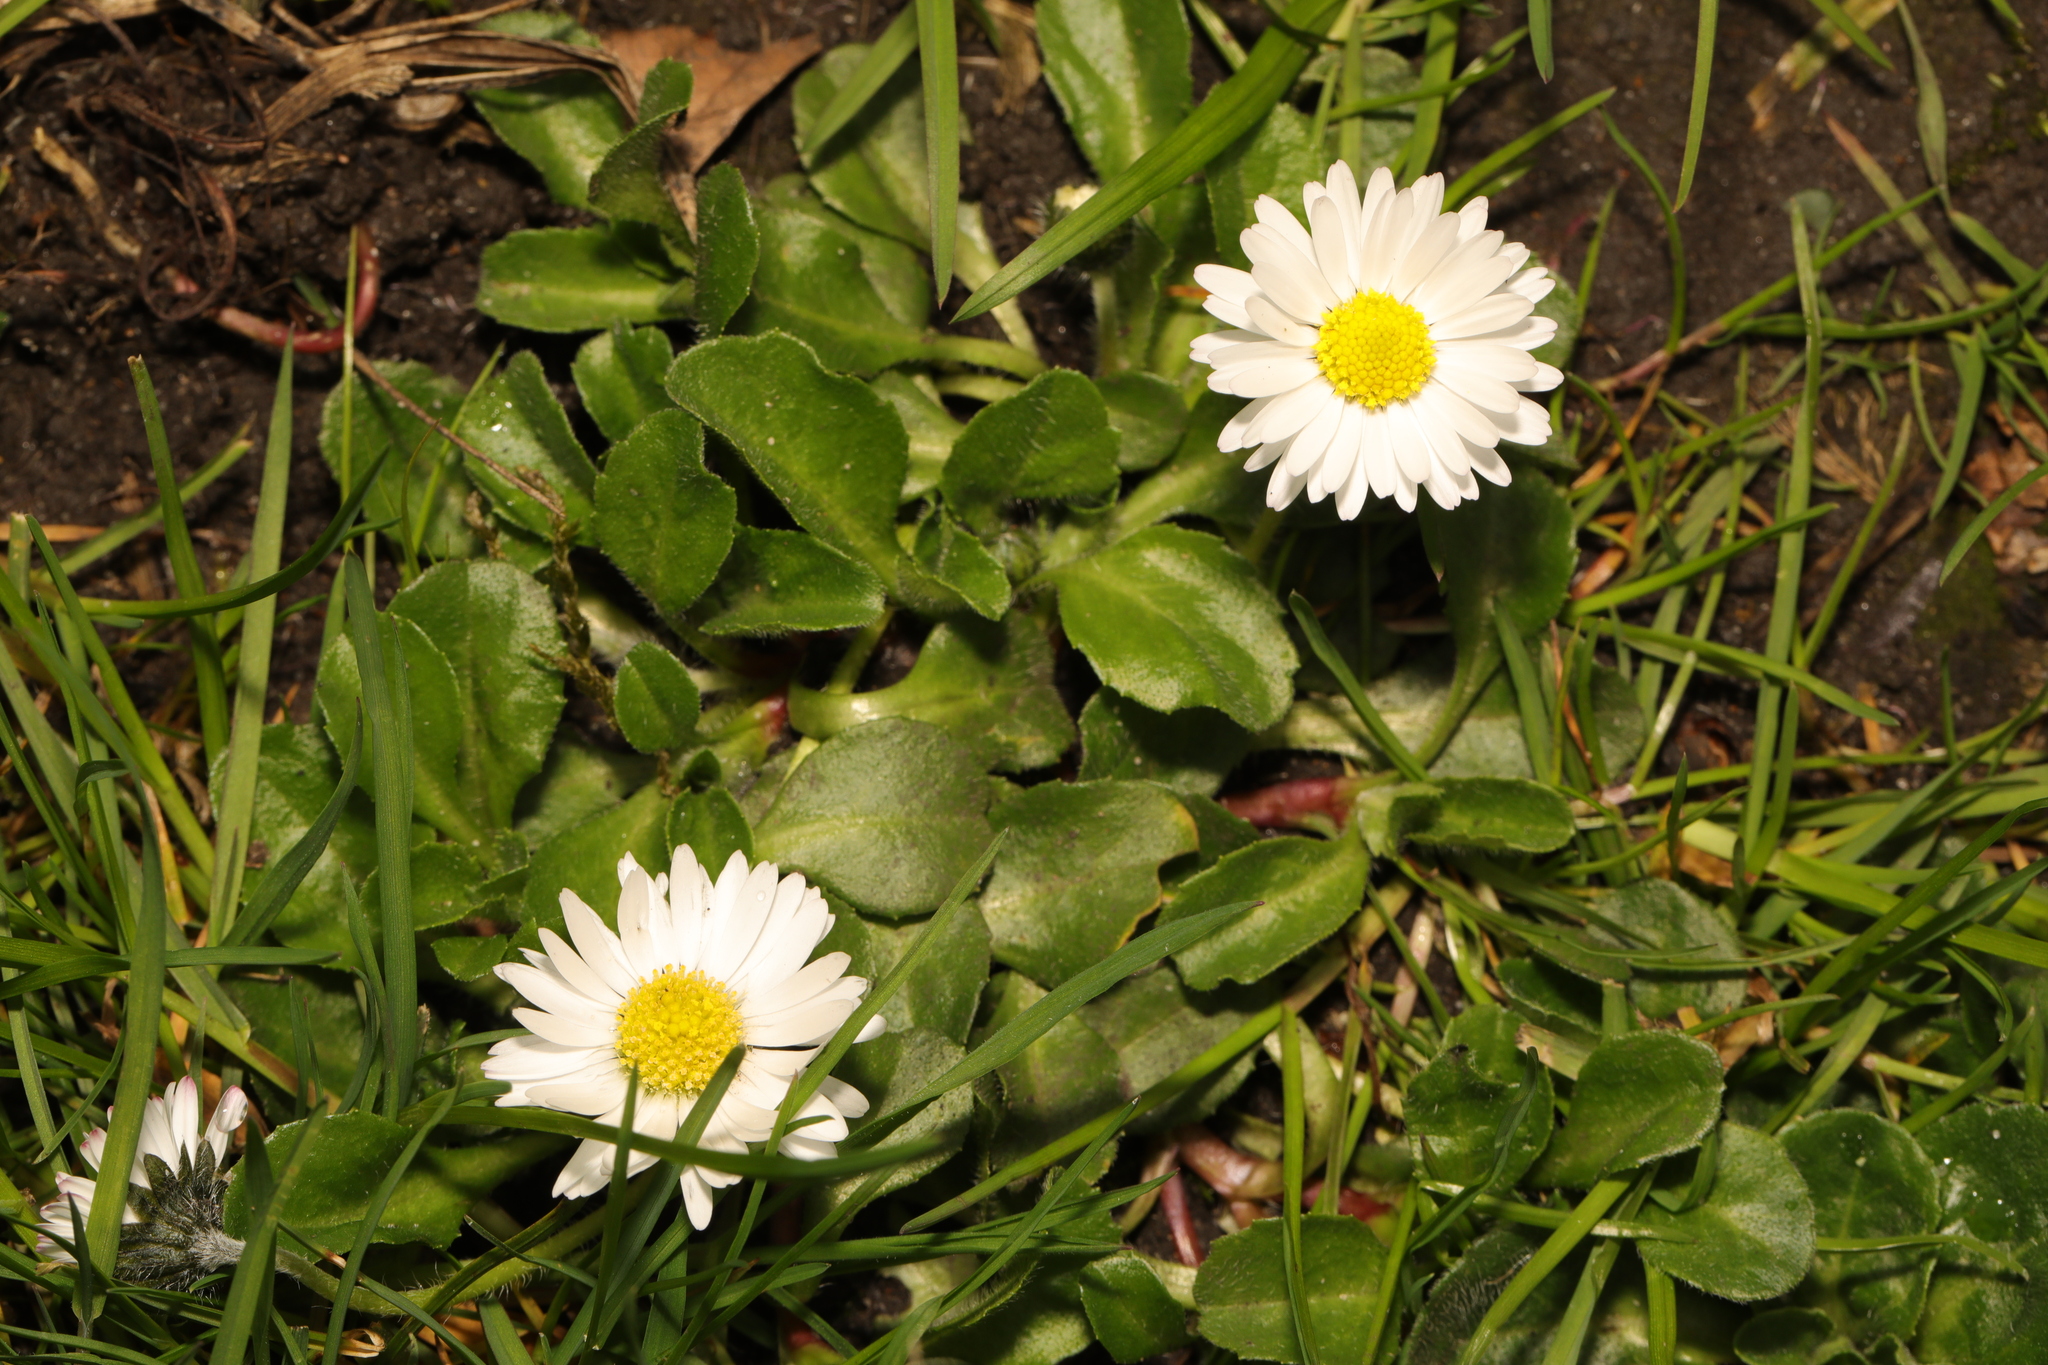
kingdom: Plantae
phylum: Tracheophyta
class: Magnoliopsida
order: Asterales
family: Asteraceae
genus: Bellis
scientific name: Bellis perennis
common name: Lawndaisy
